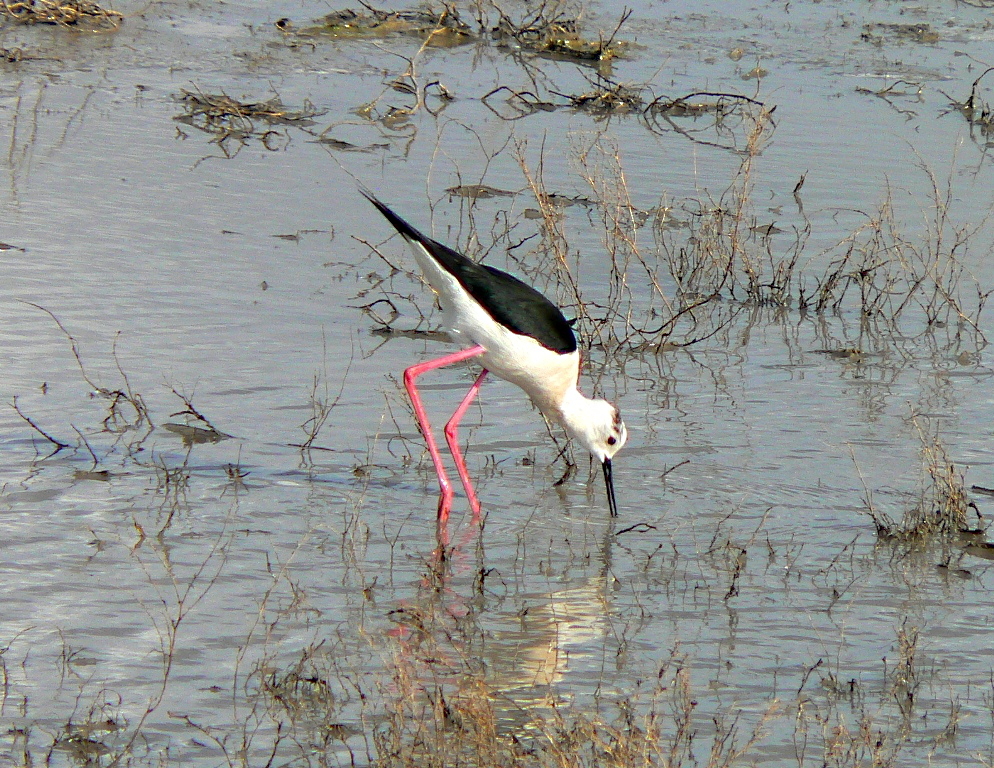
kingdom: Animalia
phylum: Chordata
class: Aves
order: Charadriiformes
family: Recurvirostridae
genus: Himantopus
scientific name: Himantopus himantopus
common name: Black-winged stilt
